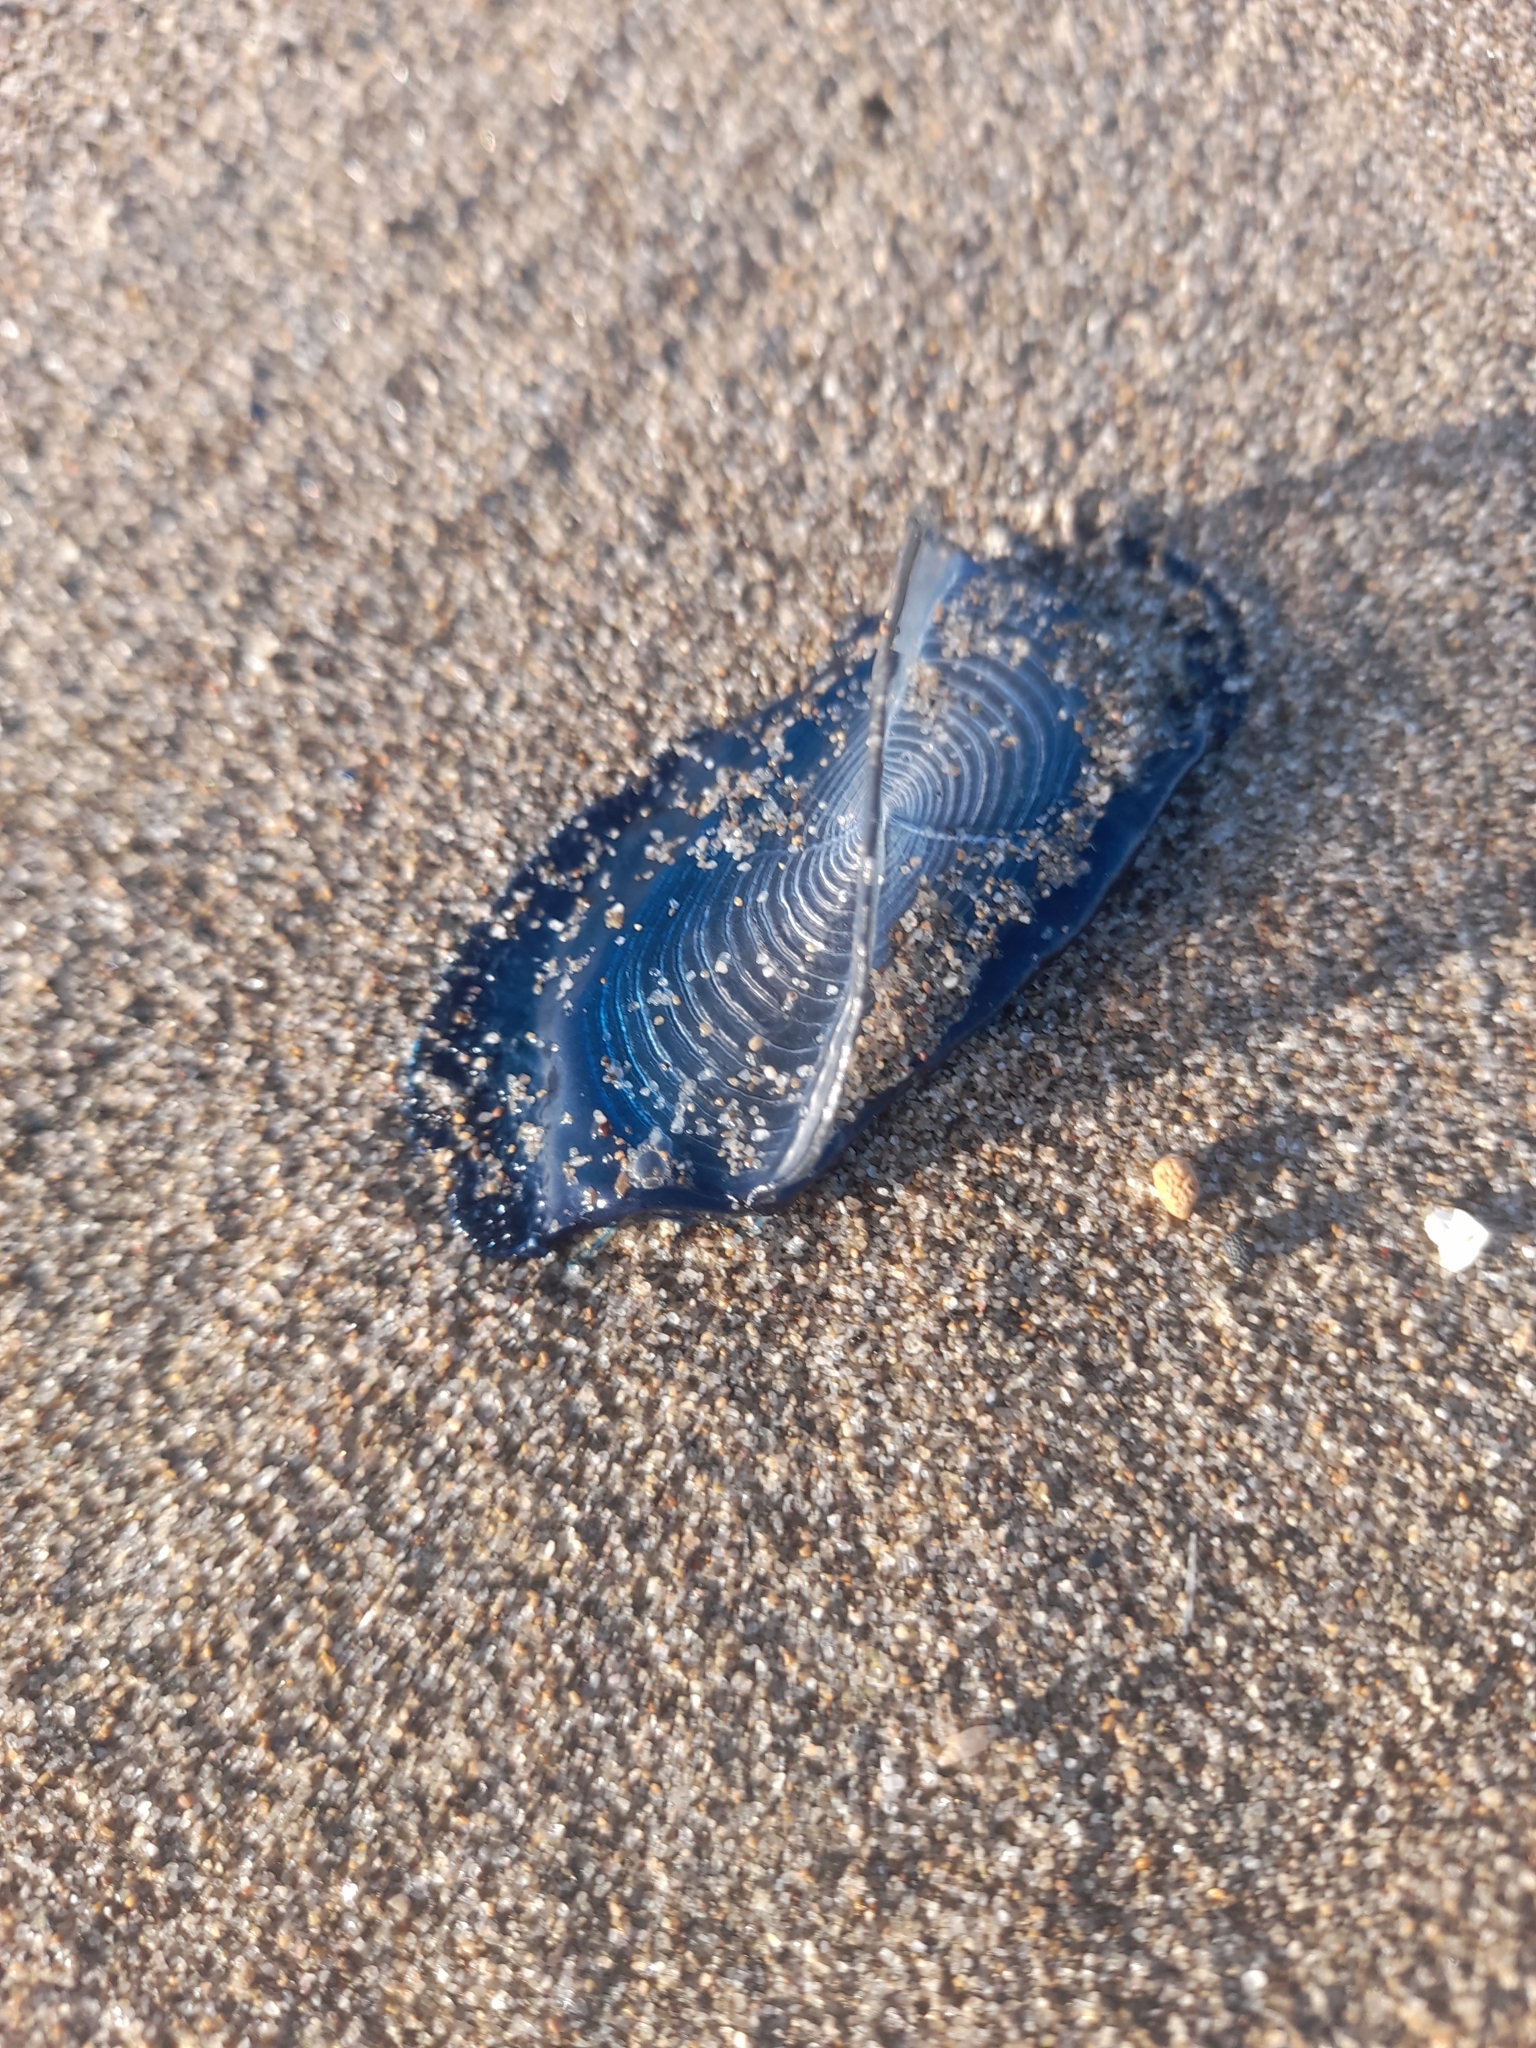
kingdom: Animalia
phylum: Cnidaria
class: Hydrozoa
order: Anthoathecata
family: Porpitidae
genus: Velella
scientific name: Velella velella
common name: By-the-wind-sailor
